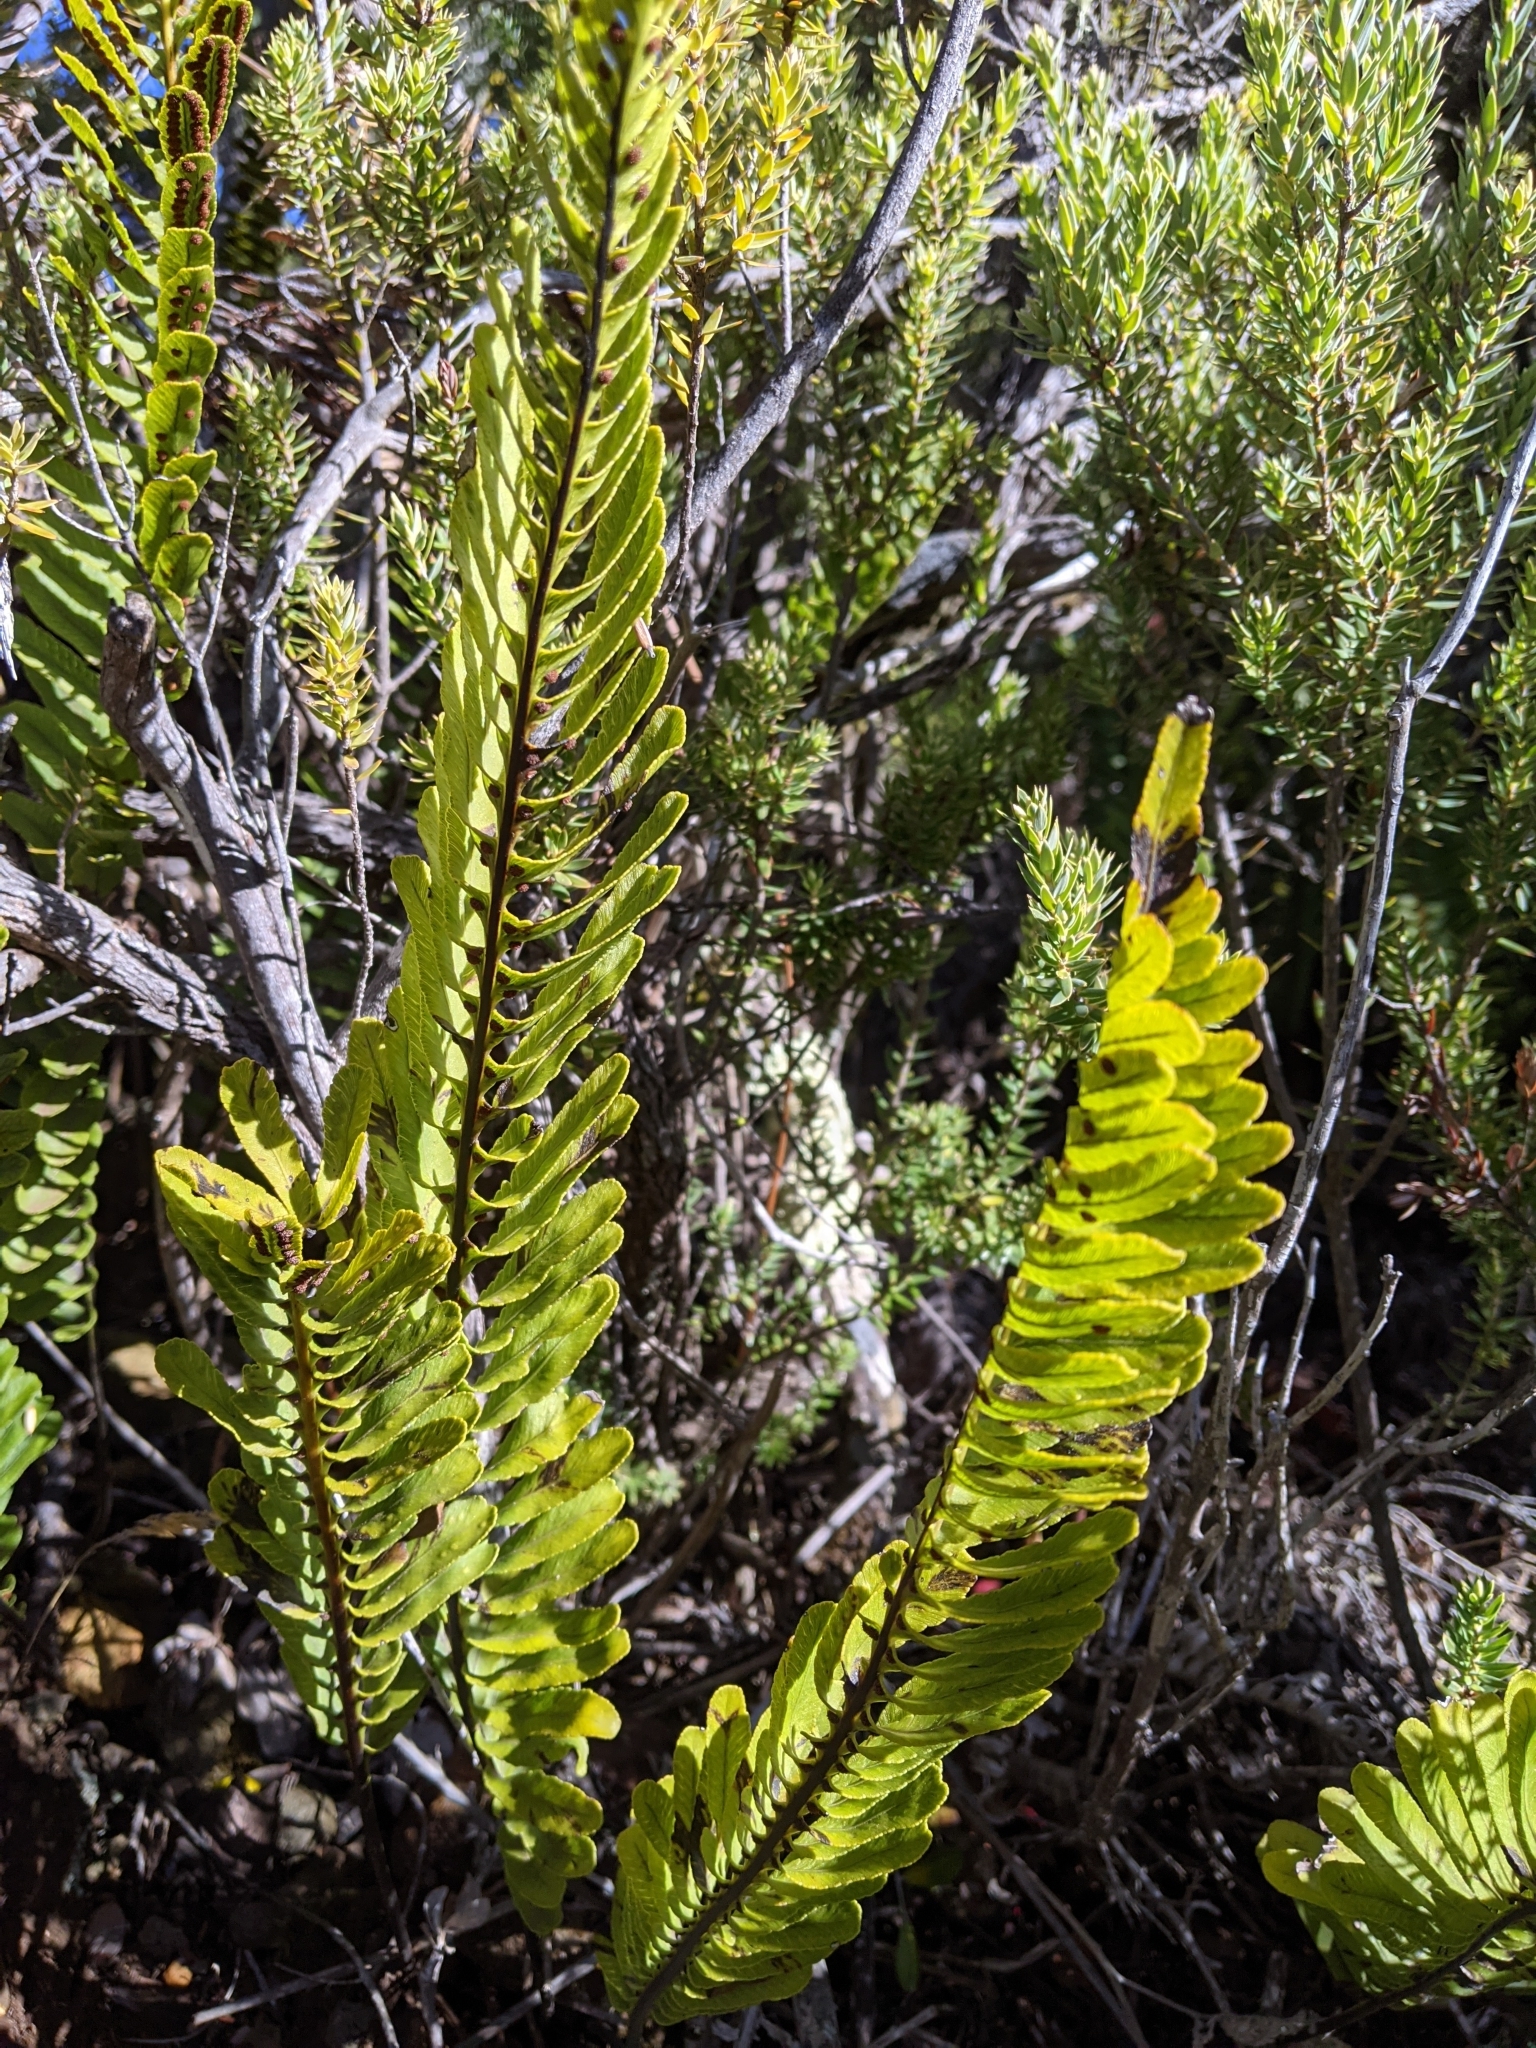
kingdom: Plantae
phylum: Tracheophyta
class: Polypodiopsida
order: Polypodiales
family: Polypodiaceae
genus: Polypodium
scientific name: Polypodium pellucidum
